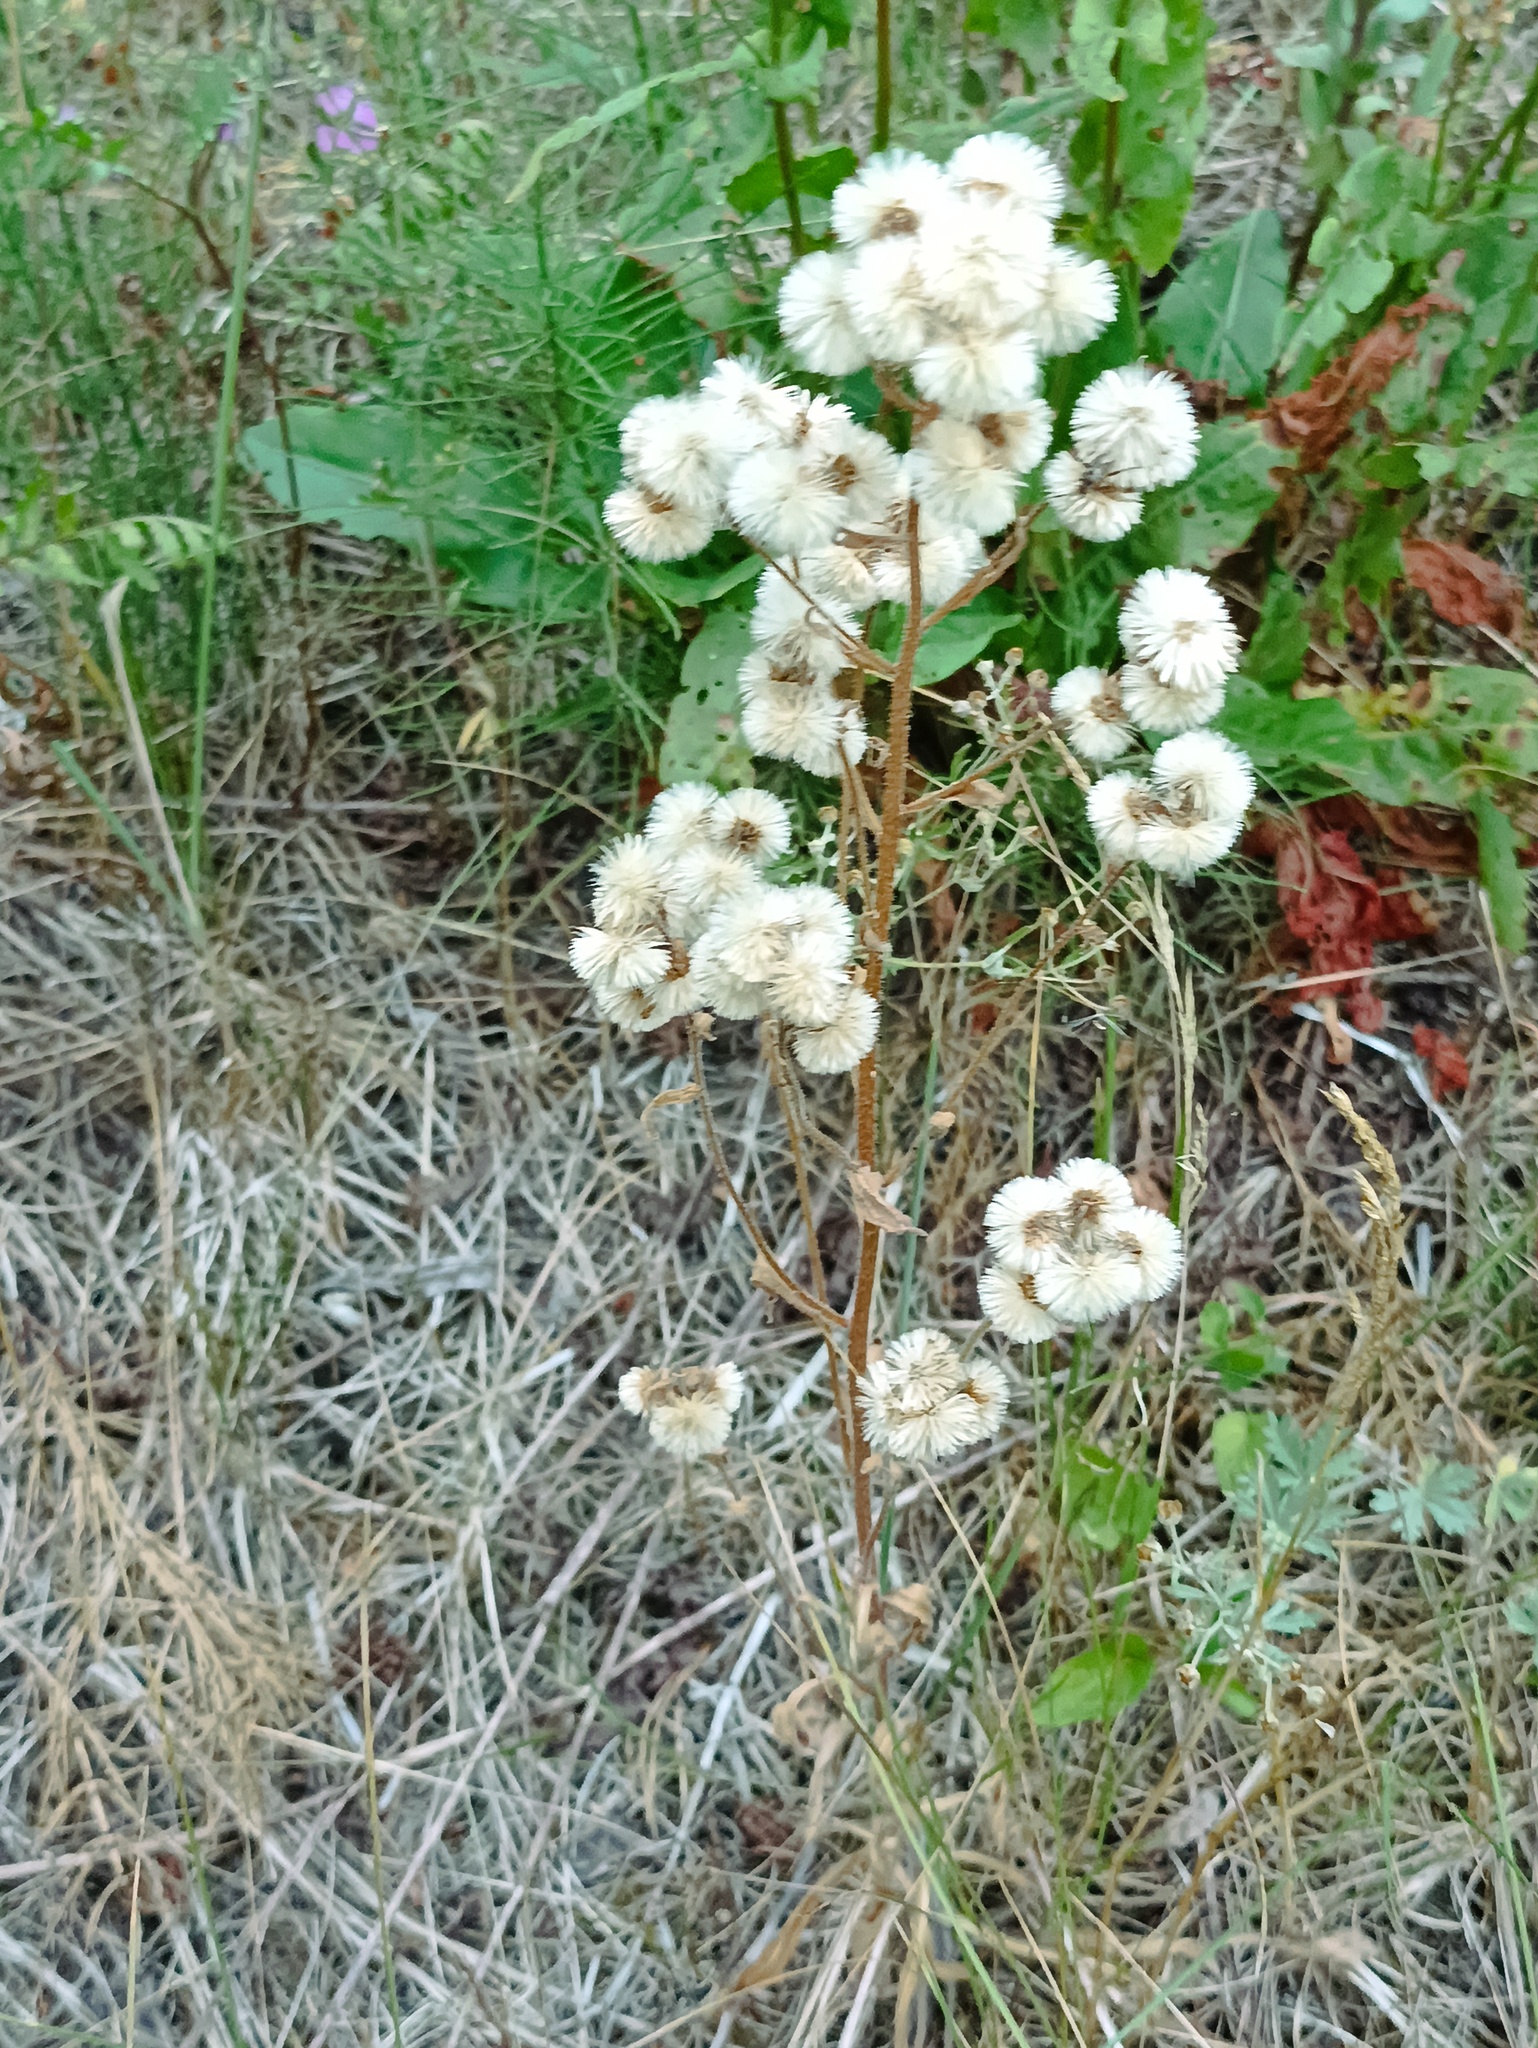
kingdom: Plantae
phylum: Tracheophyta
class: Magnoliopsida
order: Asterales
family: Asteraceae
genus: Erigeron
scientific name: Erigeron acris
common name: Blue fleabane
